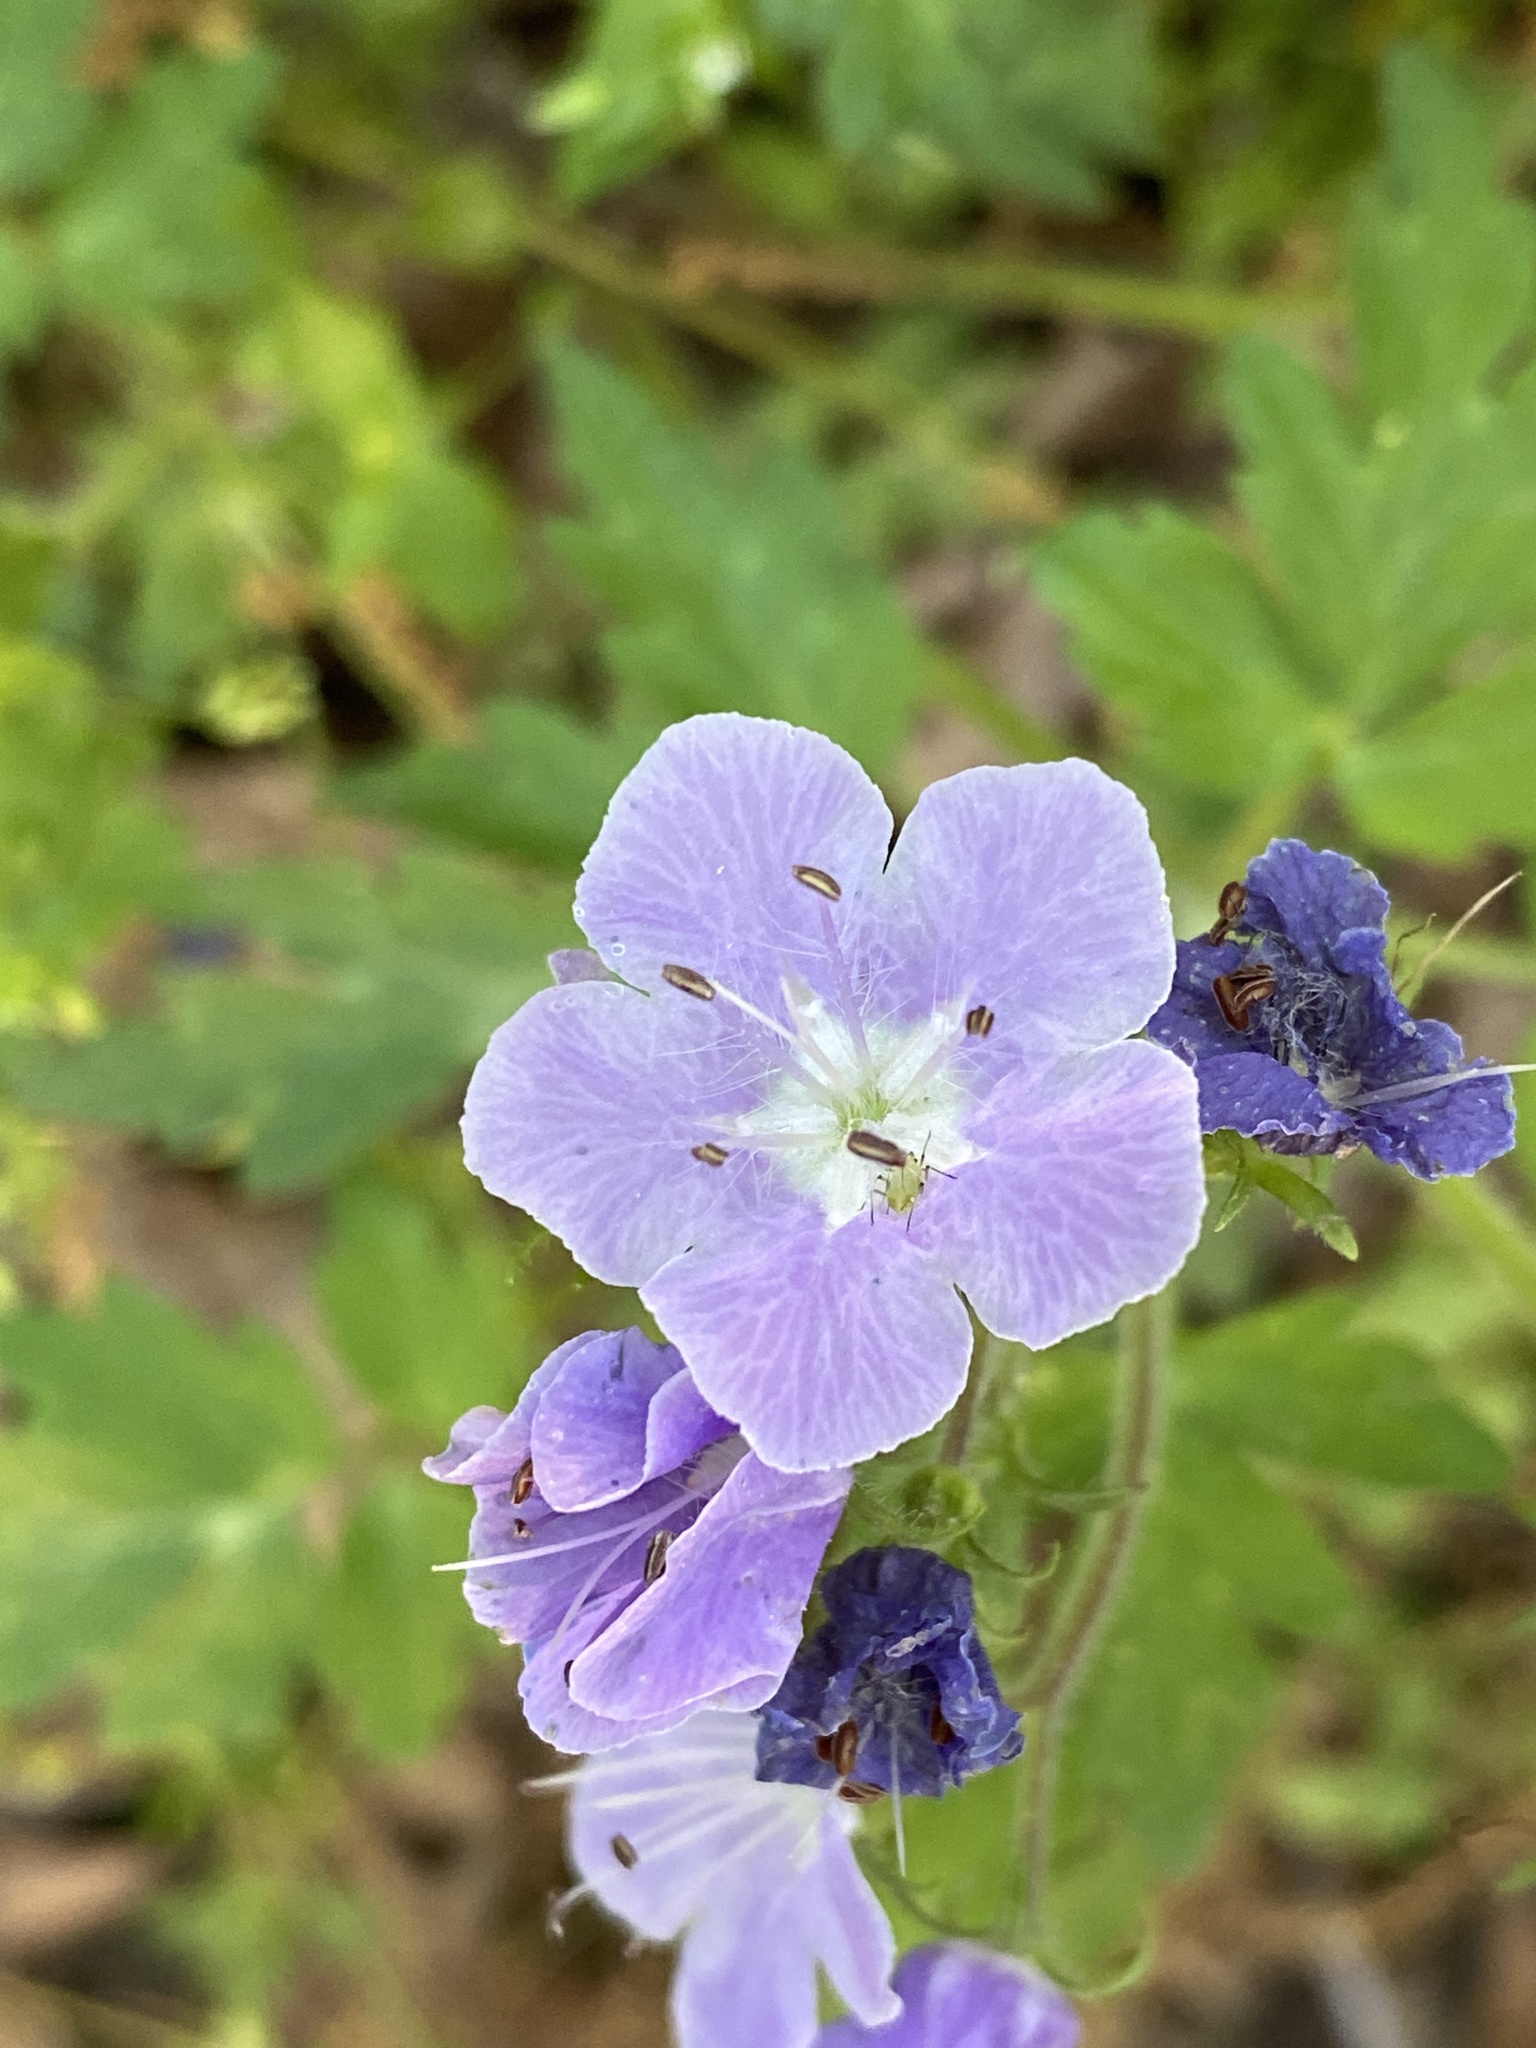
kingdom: Plantae
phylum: Tracheophyta
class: Magnoliopsida
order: Boraginales
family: Hydrophyllaceae
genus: Phacelia
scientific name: Phacelia bipinnatifida
